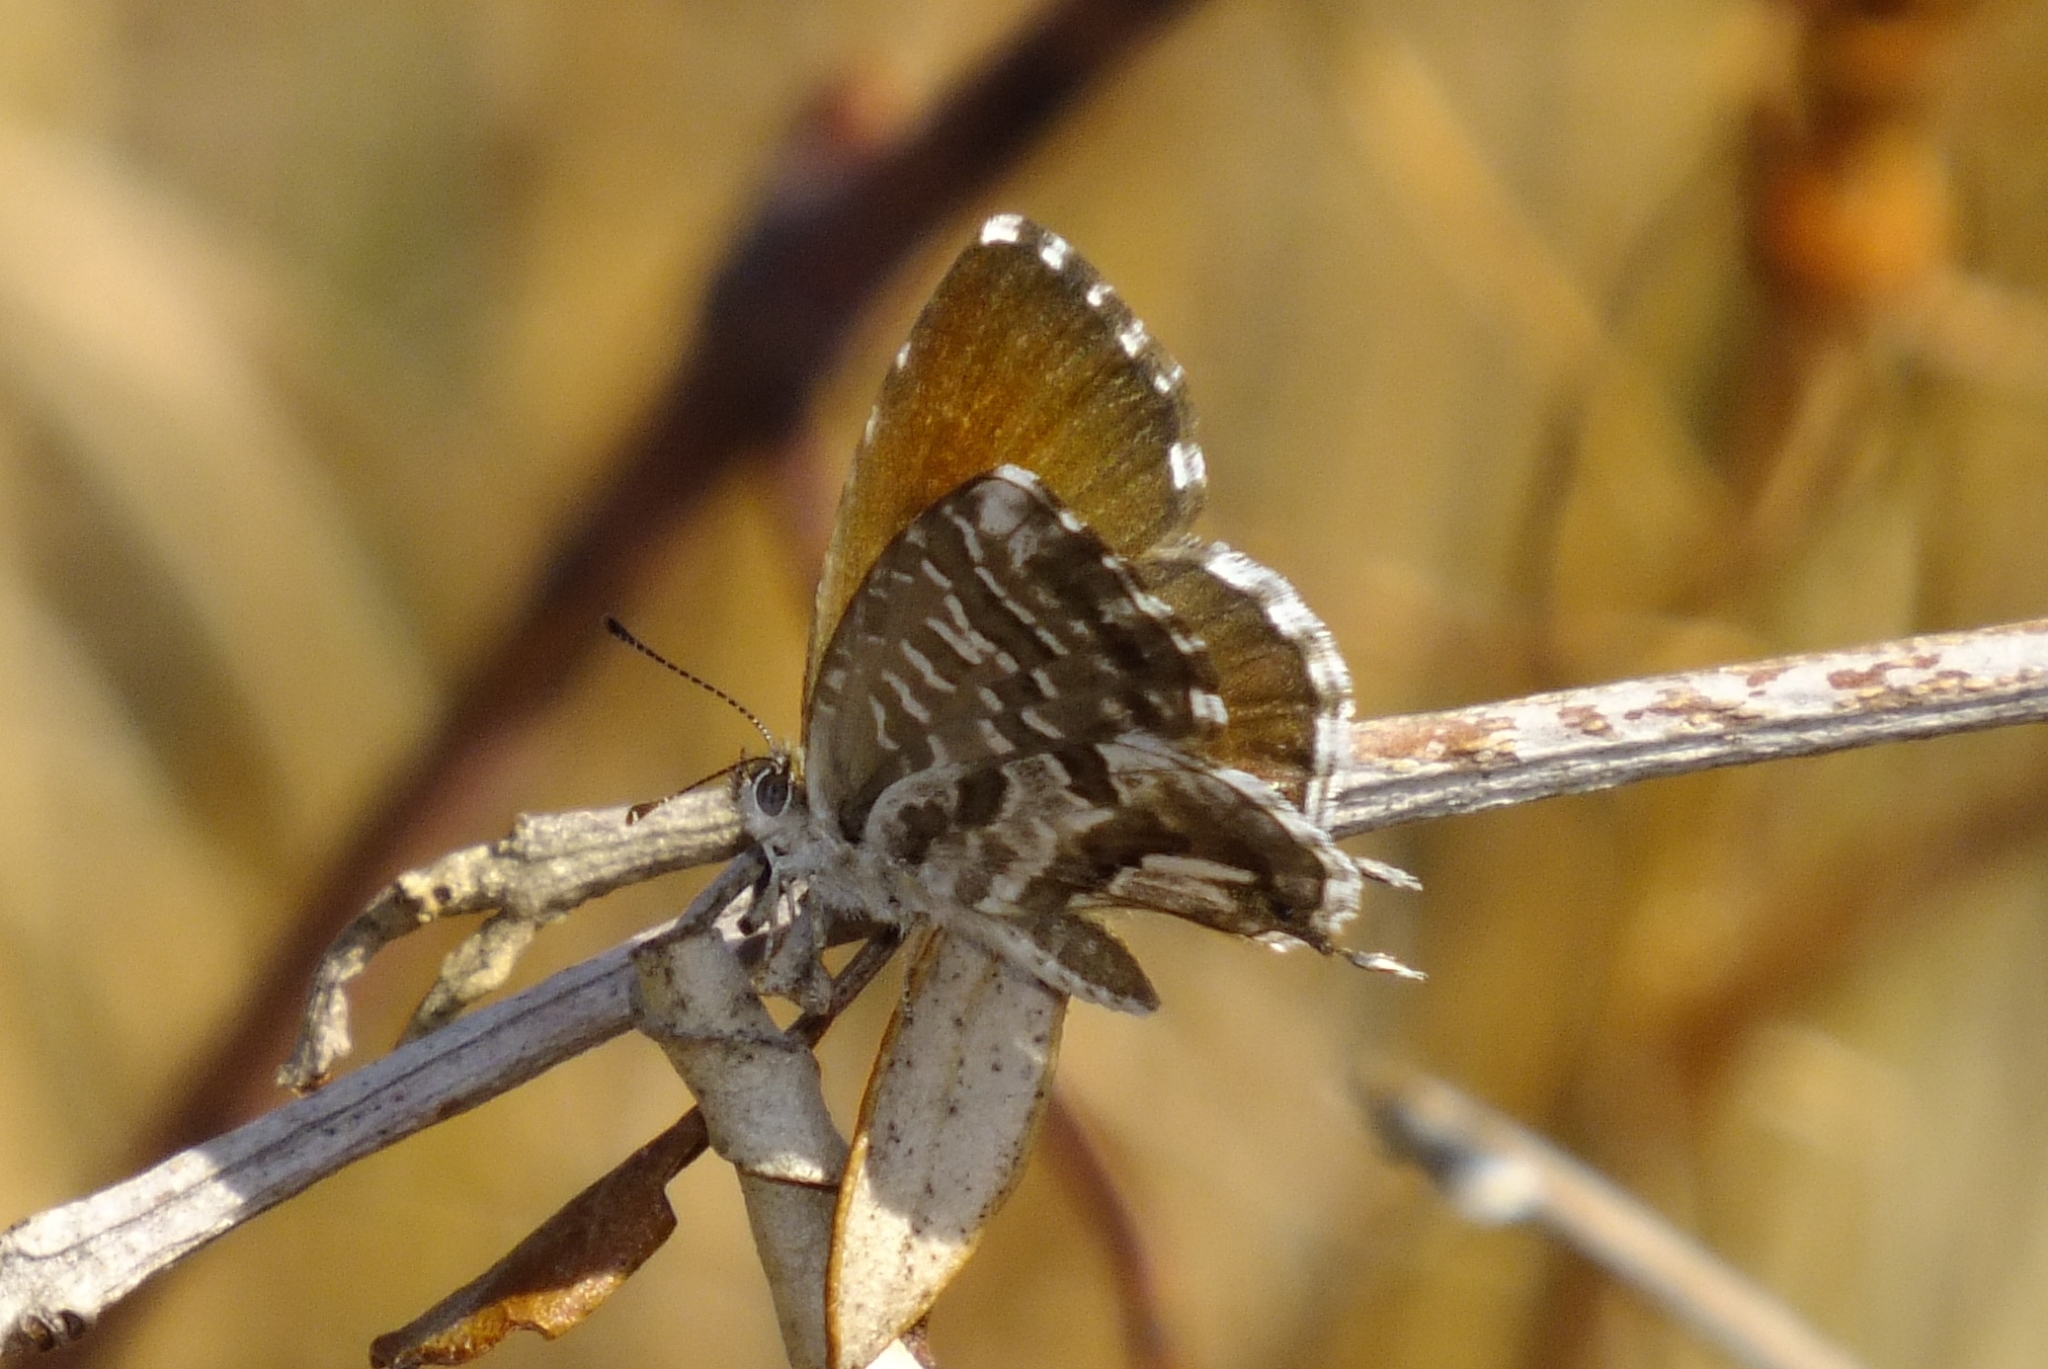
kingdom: Animalia
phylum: Arthropoda
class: Insecta
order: Lepidoptera
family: Lycaenidae
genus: Cacyreus
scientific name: Cacyreus marshalli
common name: Geranium bronze
